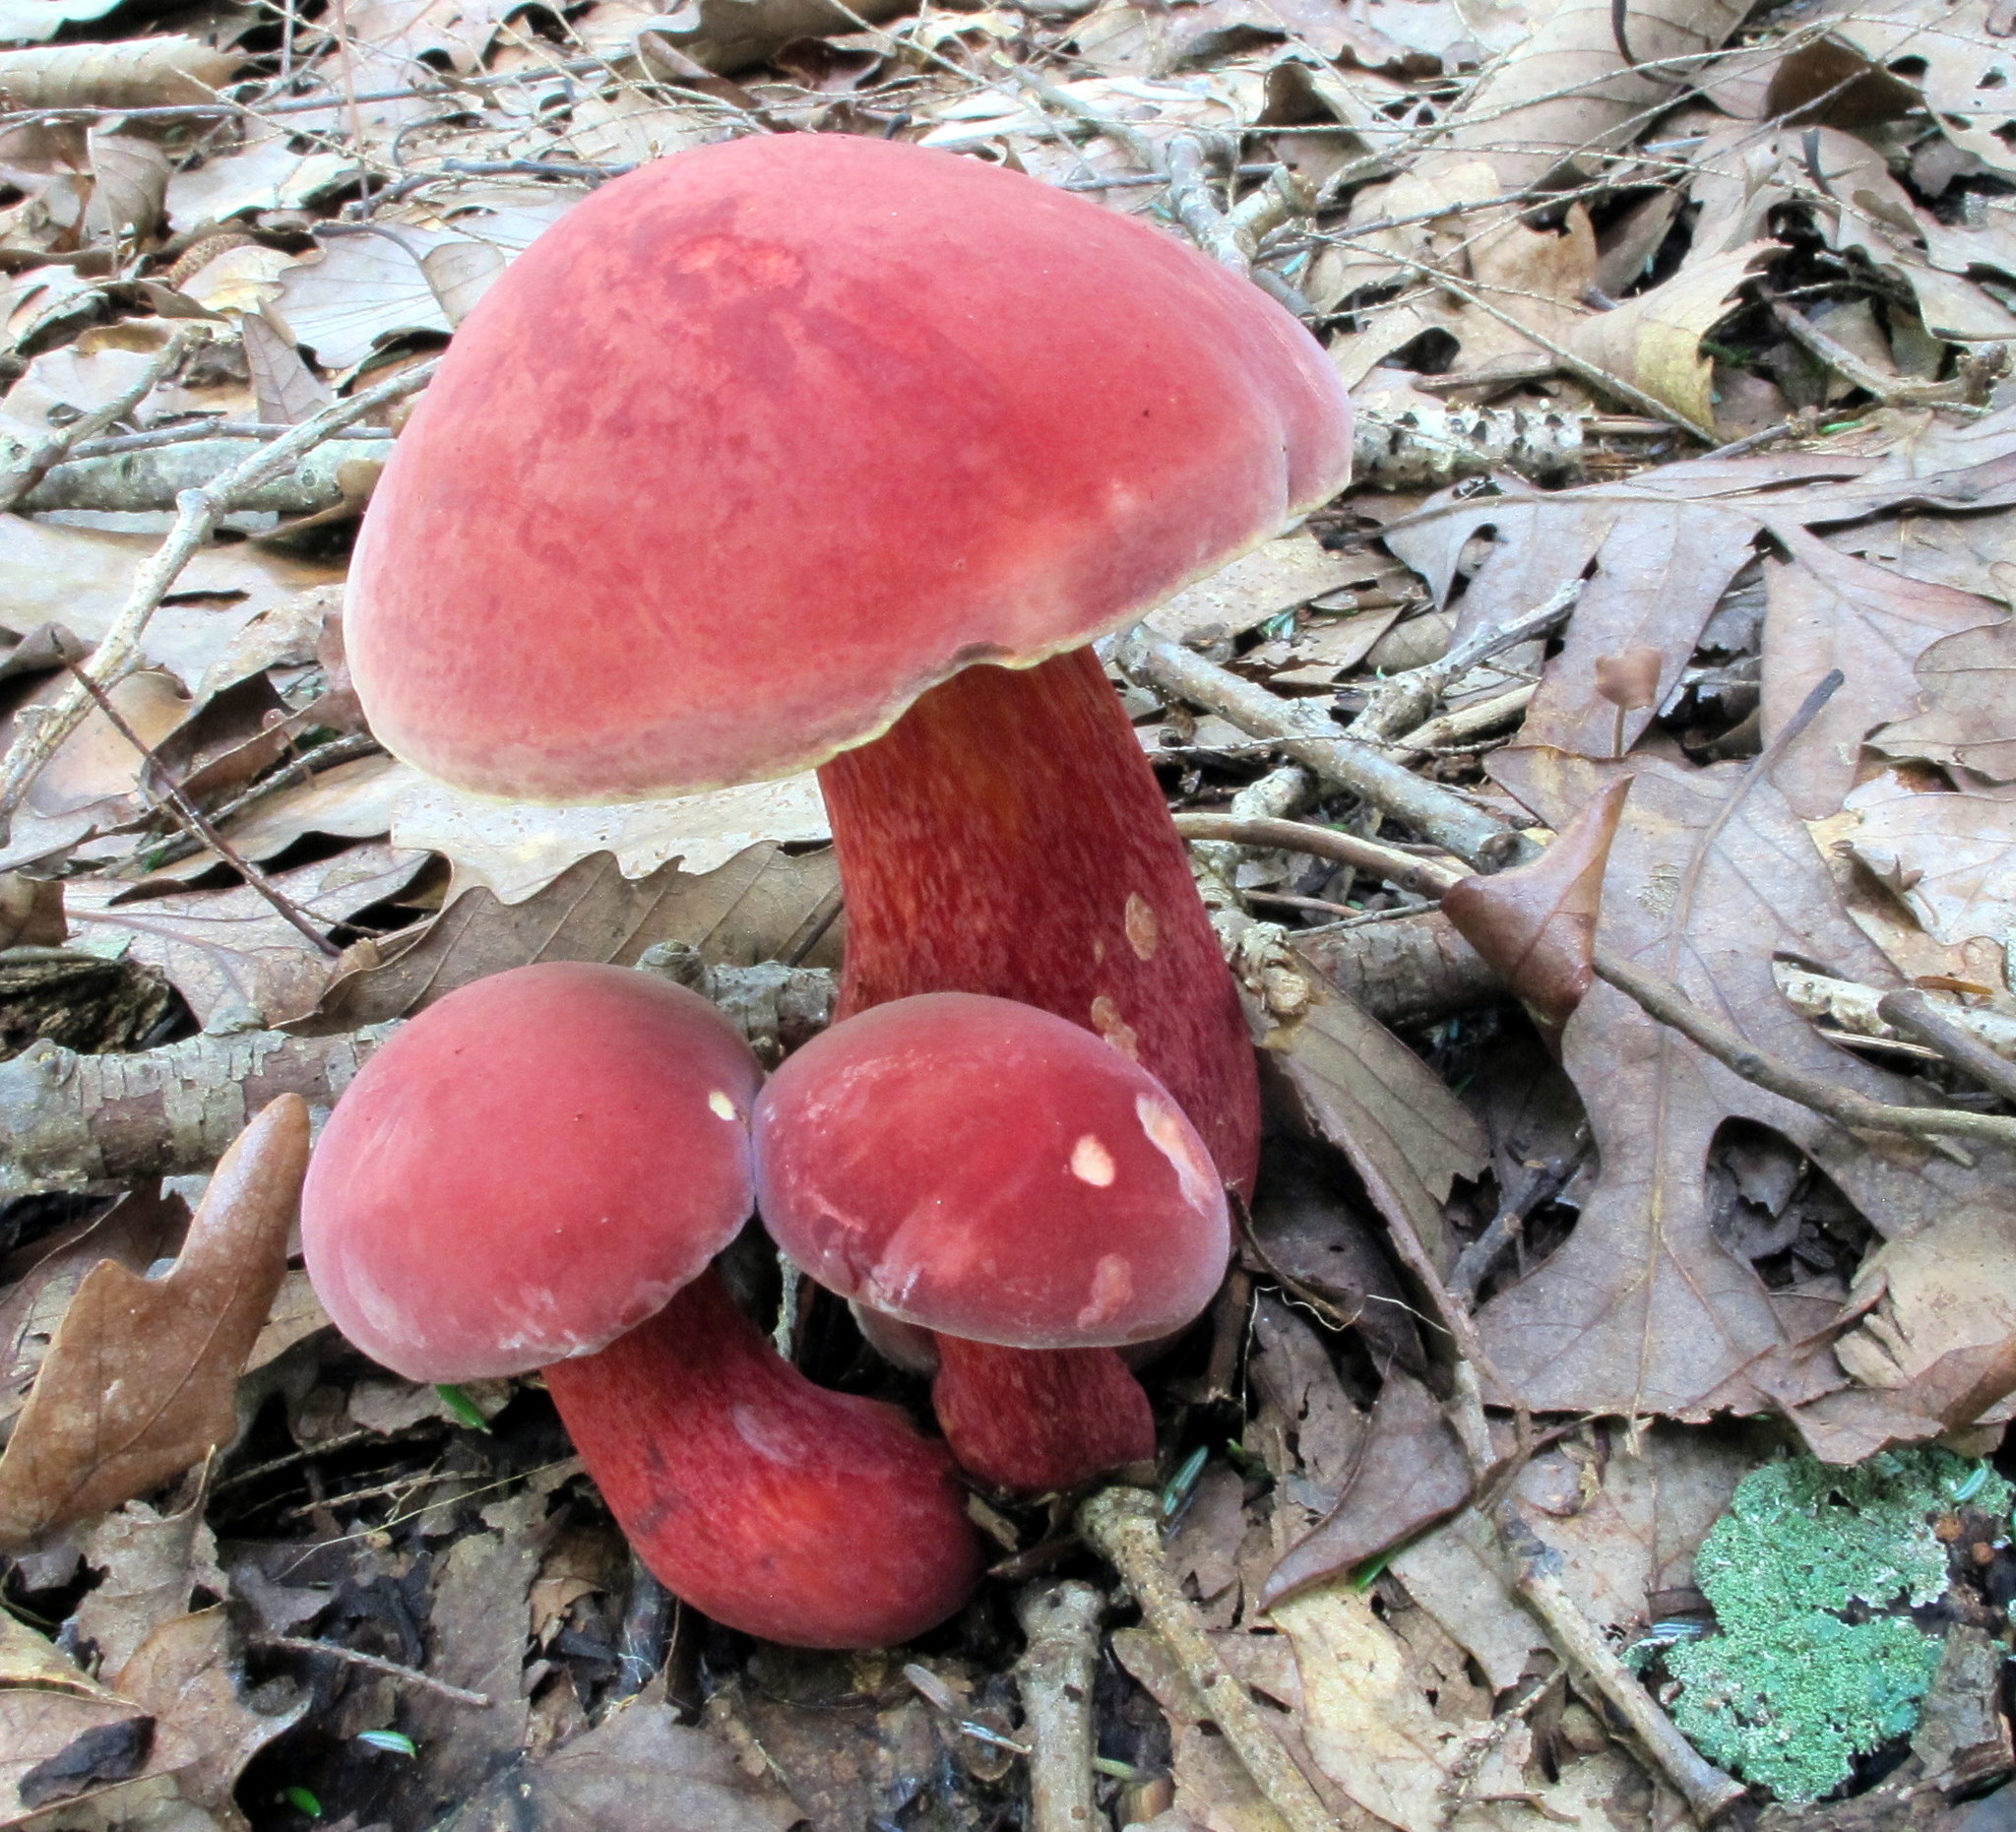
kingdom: Fungi
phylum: Basidiomycota
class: Agaricomycetes
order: Boletales
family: Boletaceae
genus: Baorangia
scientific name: Baorangia bicolor
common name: Two-colored bolete
